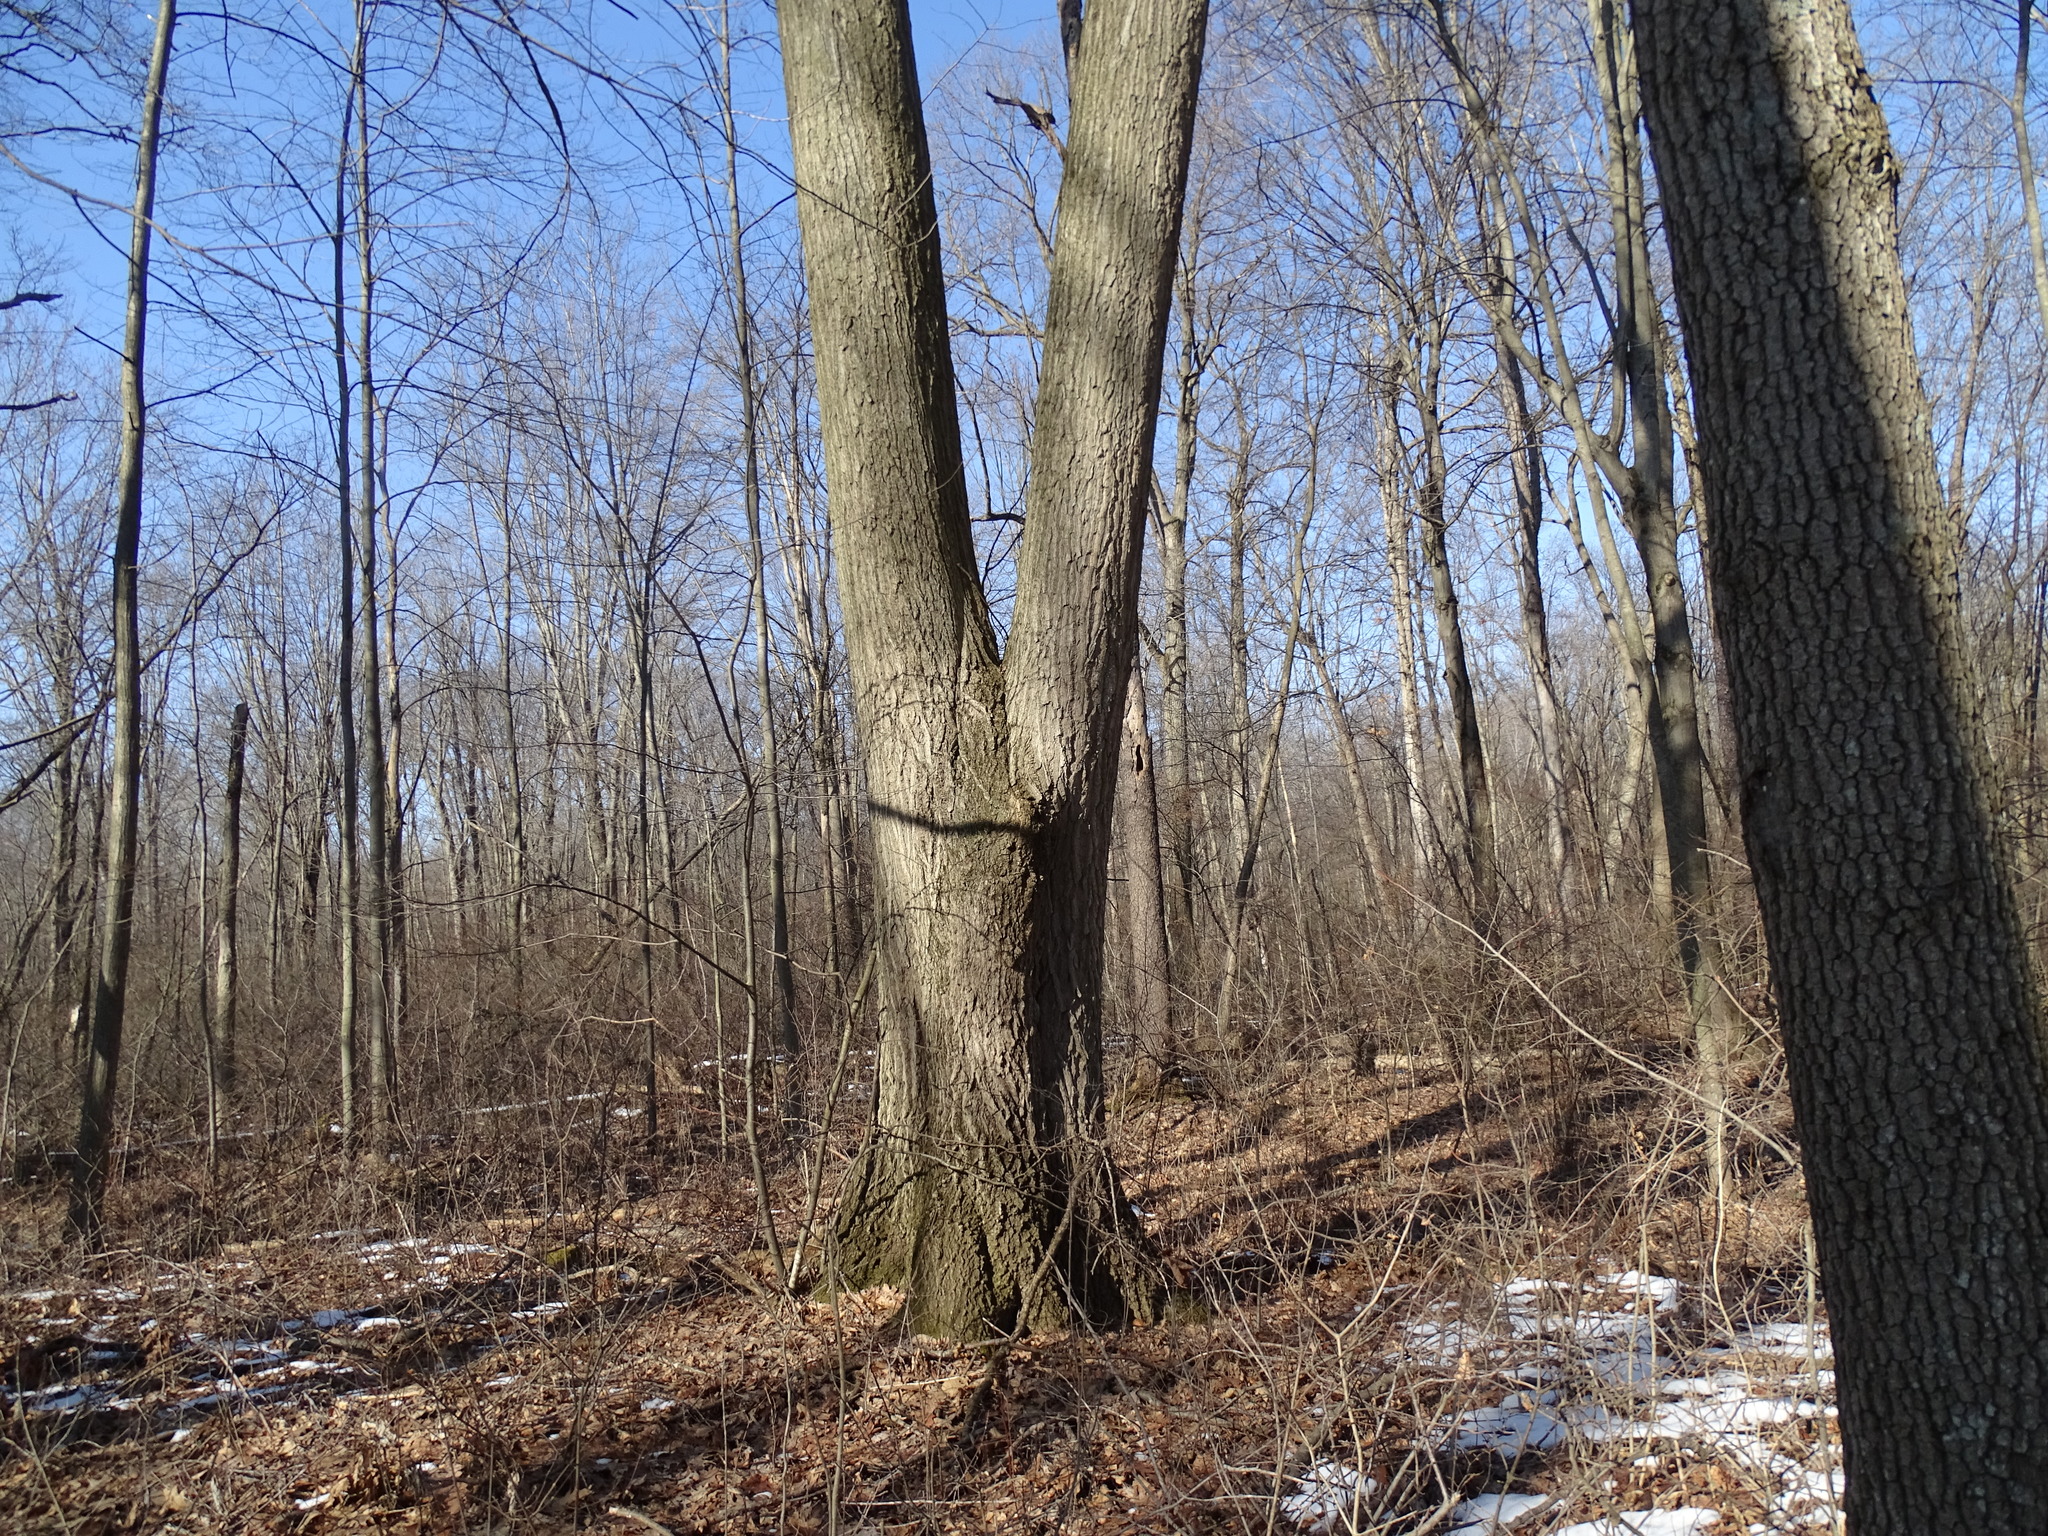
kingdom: Plantae
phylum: Tracheophyta
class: Magnoliopsida
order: Fagales
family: Fagaceae
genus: Quercus
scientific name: Quercus rubra
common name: Red oak
